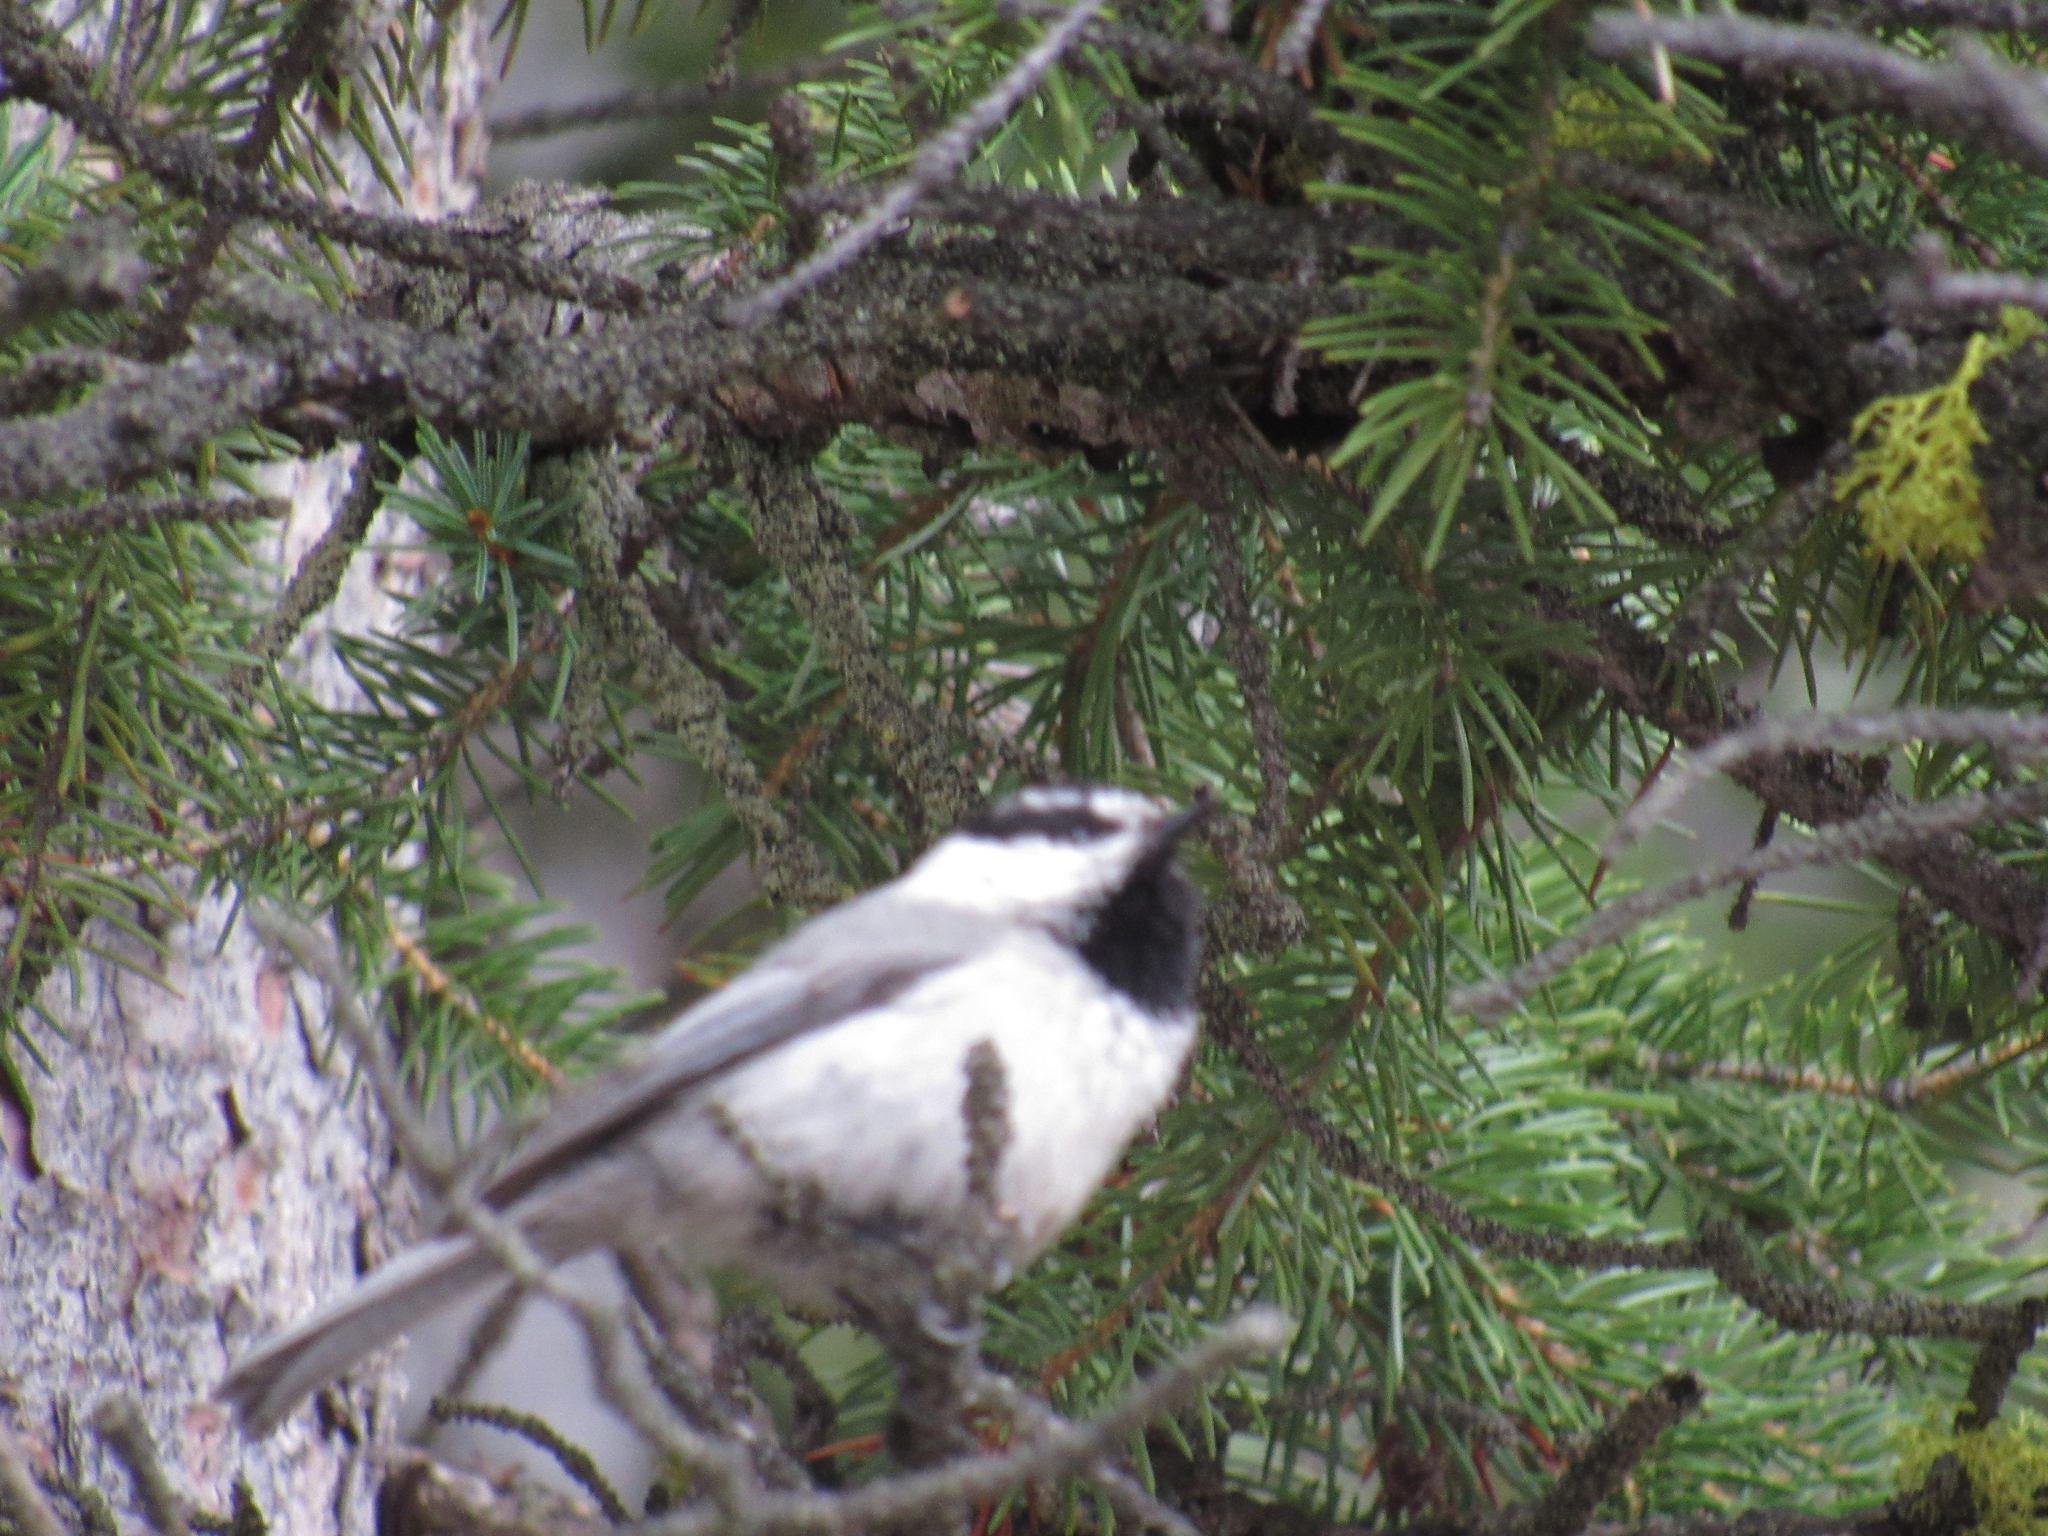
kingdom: Animalia
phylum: Chordata
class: Aves
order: Passeriformes
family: Paridae
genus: Poecile
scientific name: Poecile gambeli
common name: Mountain chickadee
